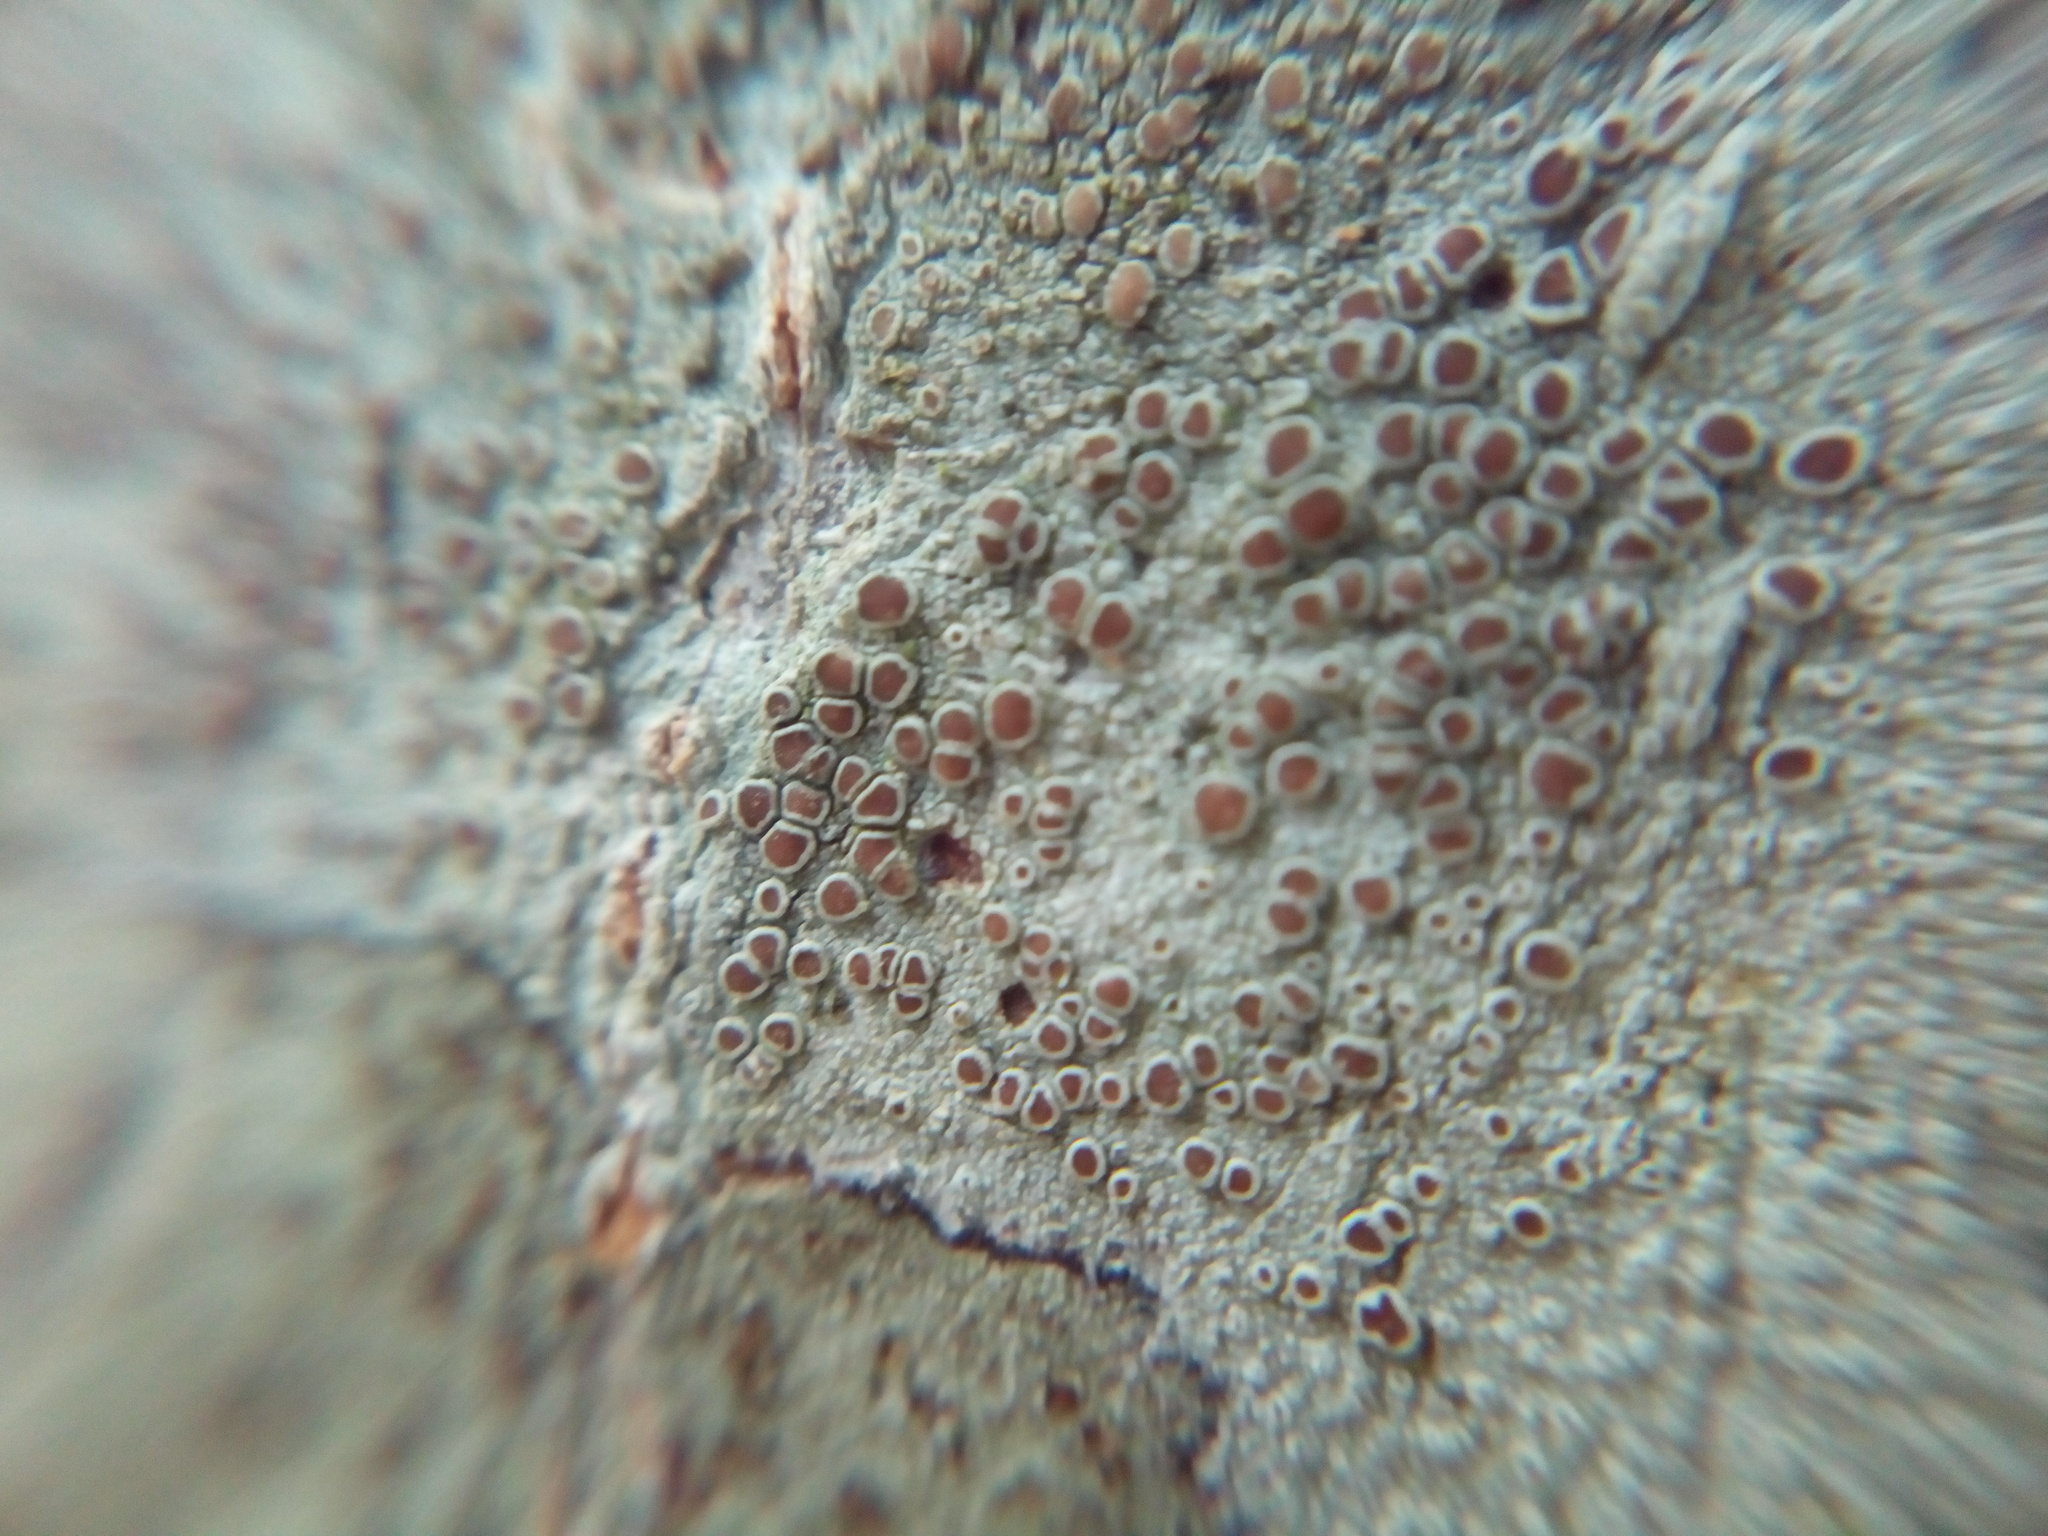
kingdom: Fungi
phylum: Ascomycota
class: Lecanoromycetes
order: Lecanorales
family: Lecanoraceae
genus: Lecanora
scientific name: Lecanora hybocarpa
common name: Bumpy rim-lichen
